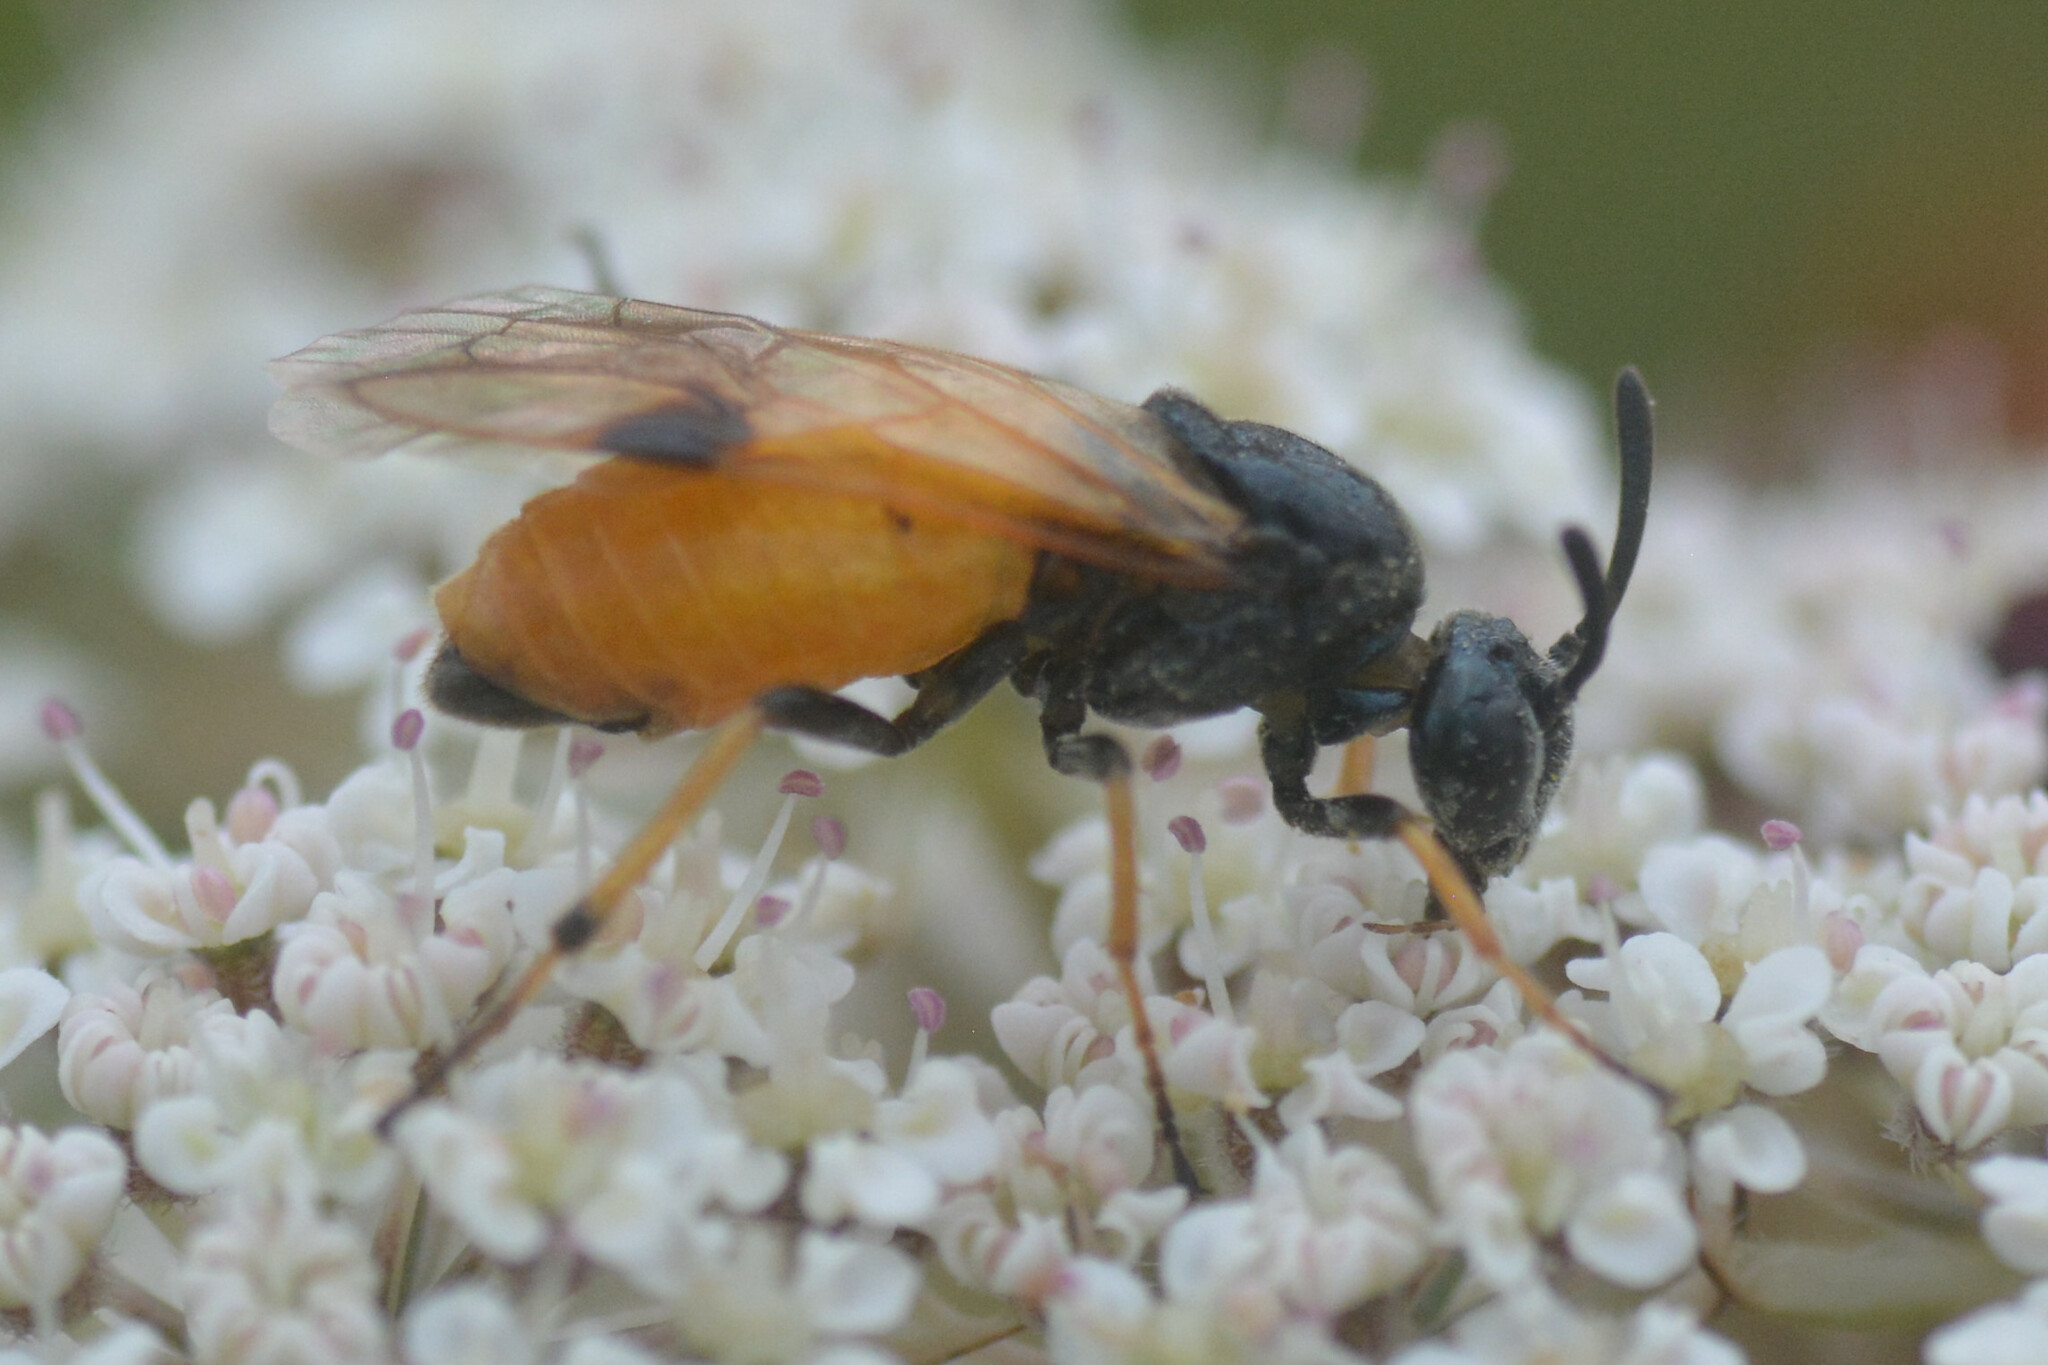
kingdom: Animalia
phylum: Arthropoda
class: Insecta
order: Hymenoptera
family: Argidae
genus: Arge
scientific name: Arge melanochra
